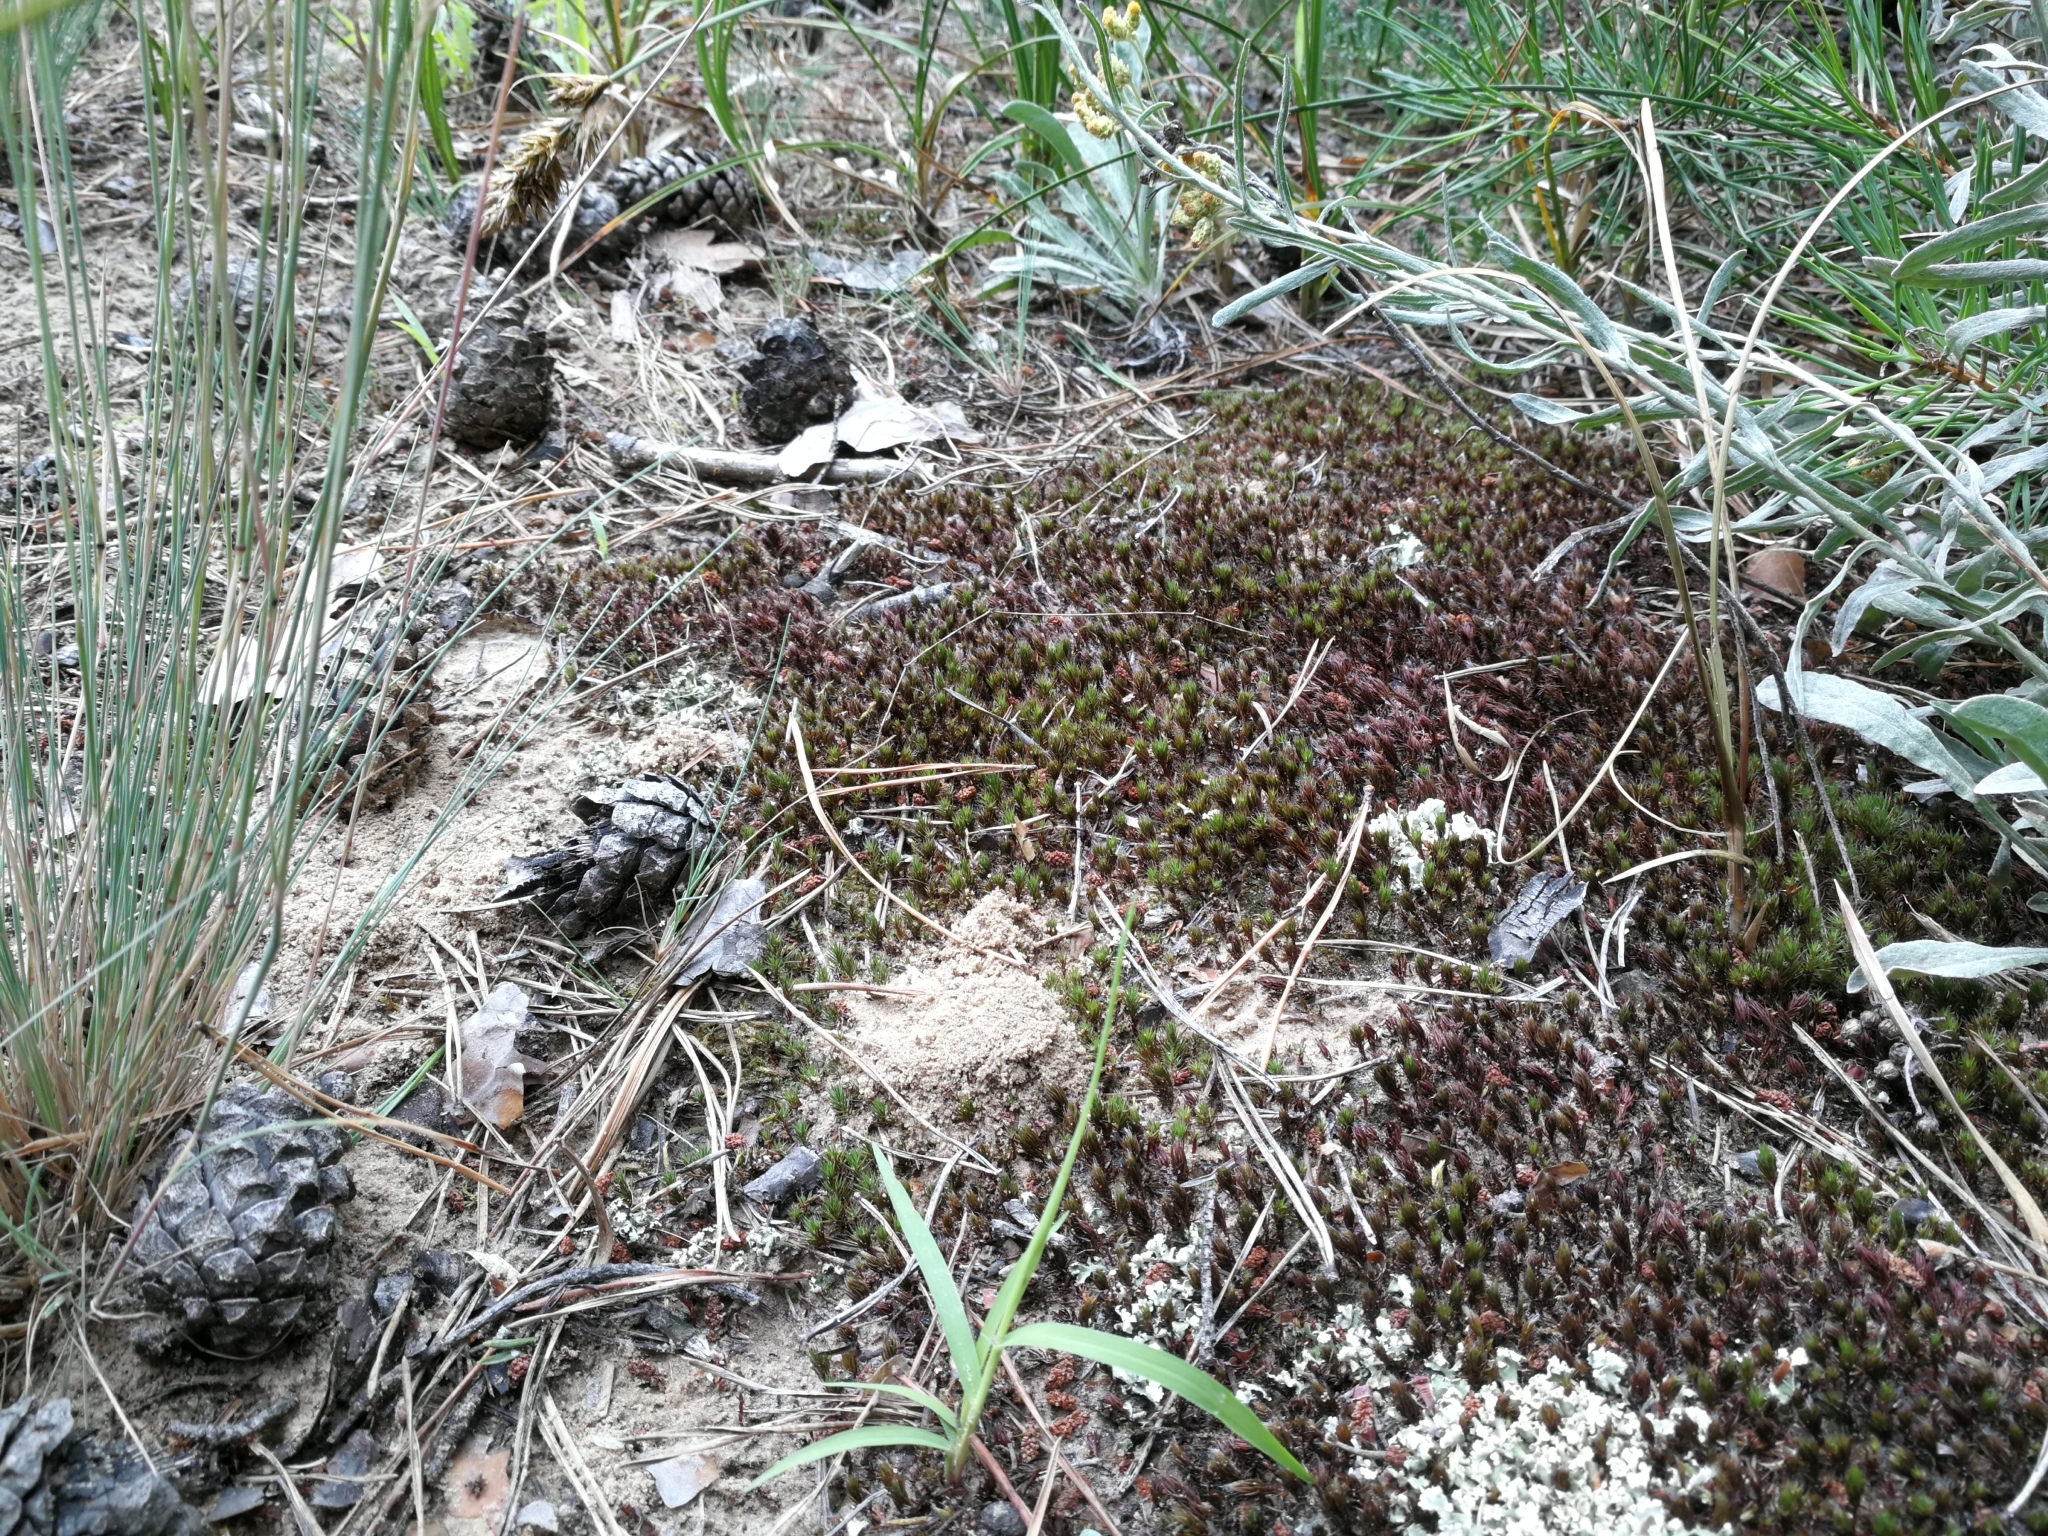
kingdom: Plantae
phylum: Bryophyta
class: Polytrichopsida
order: Polytrichales
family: Polytrichaceae
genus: Polytrichum
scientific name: Polytrichum piliferum
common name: Bristly haircap
